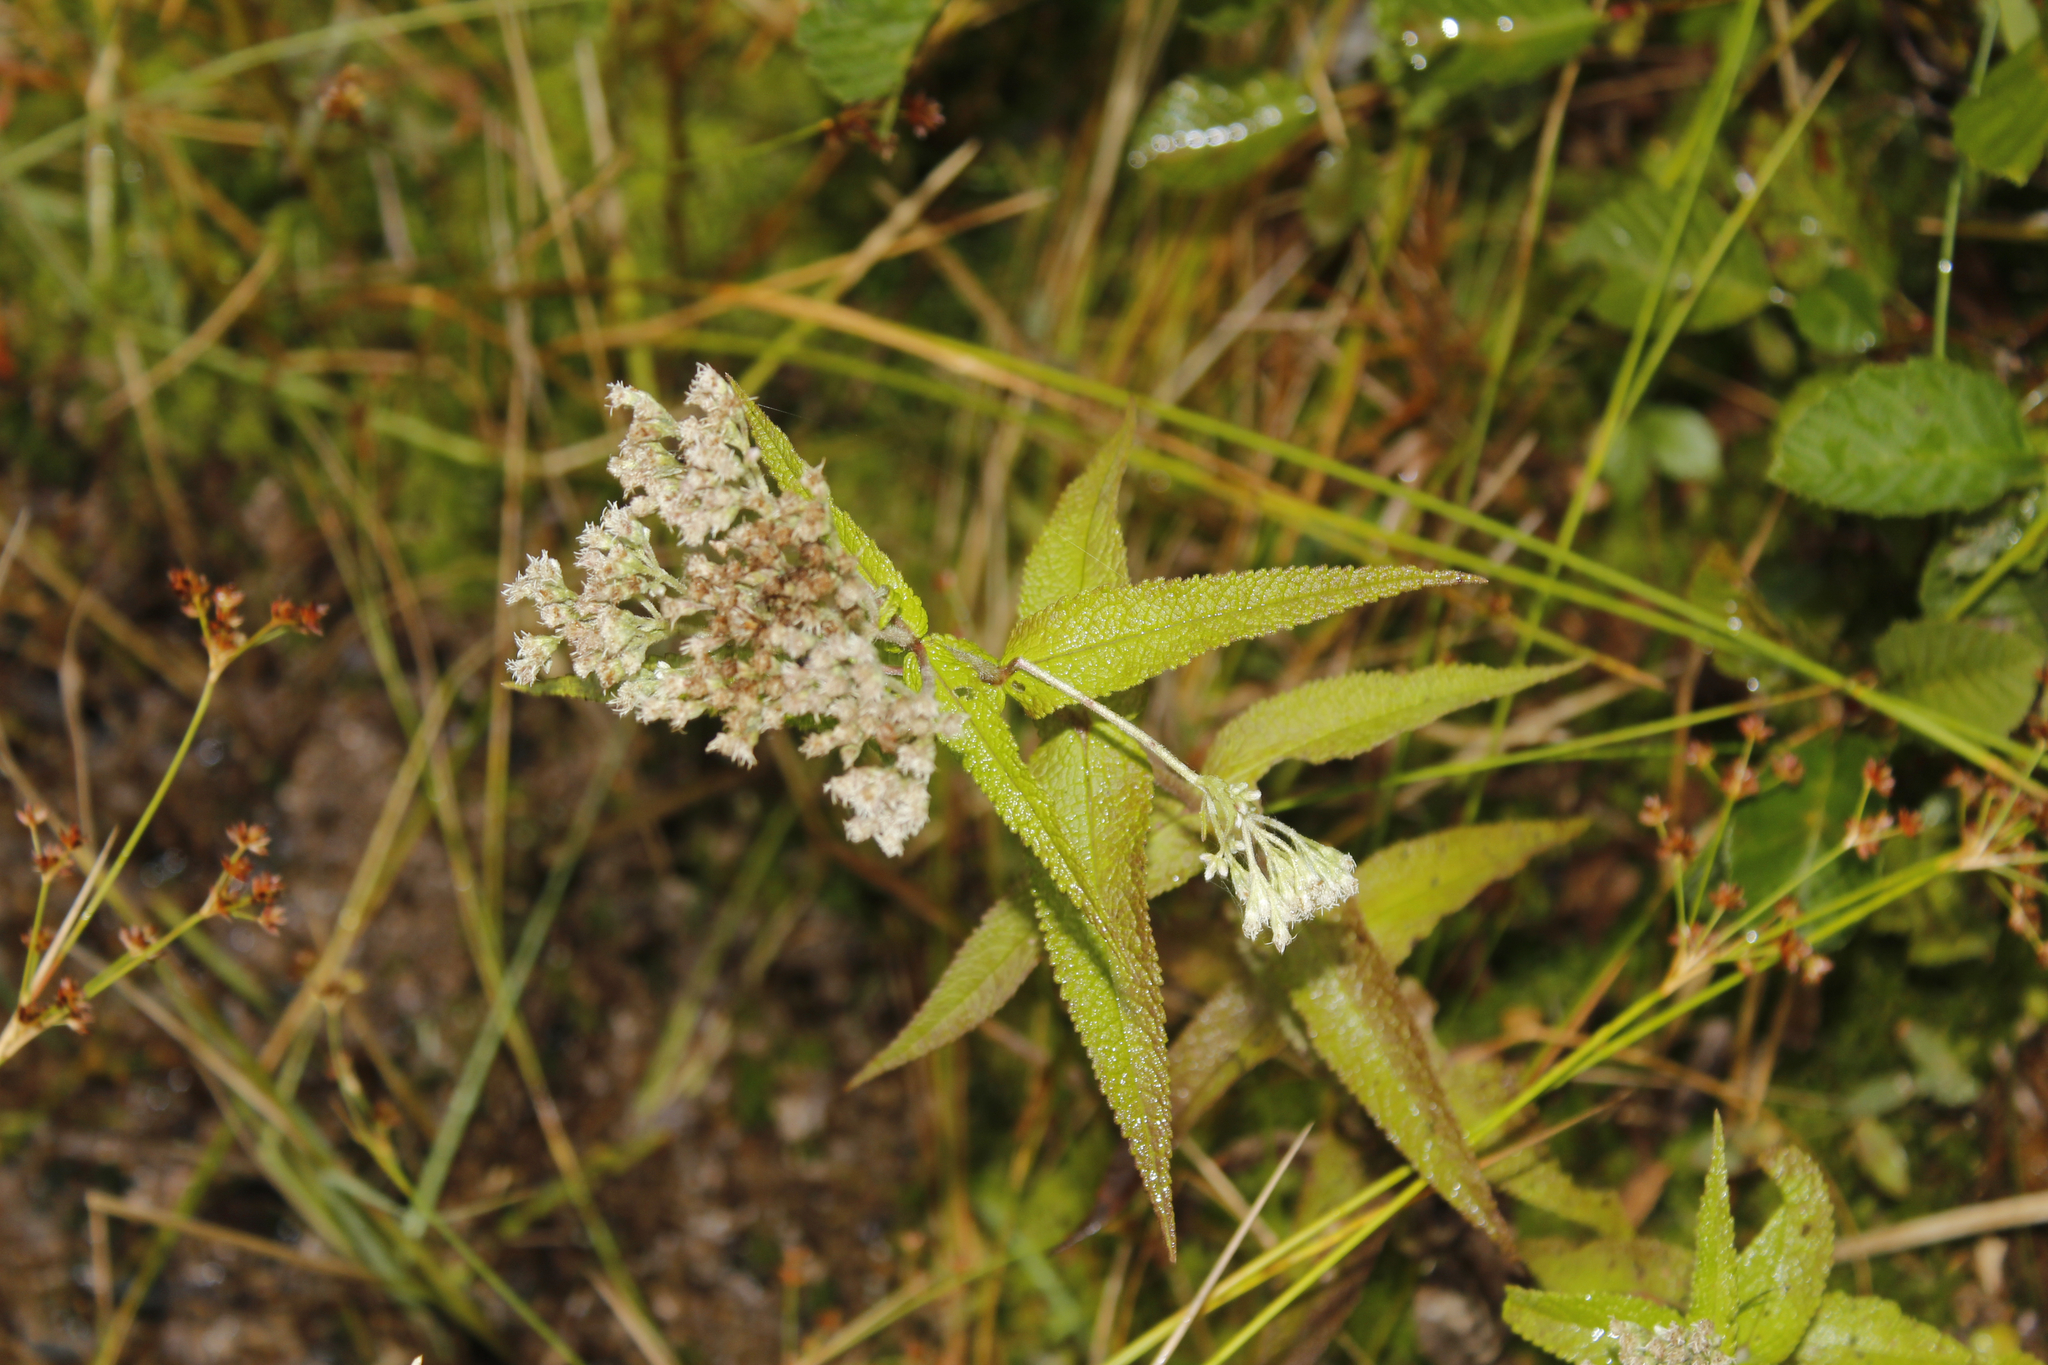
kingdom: Plantae
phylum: Tracheophyta
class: Magnoliopsida
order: Asterales
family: Asteraceae
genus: Eupatorium
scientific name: Eupatorium perfoliatum
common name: Boneset
